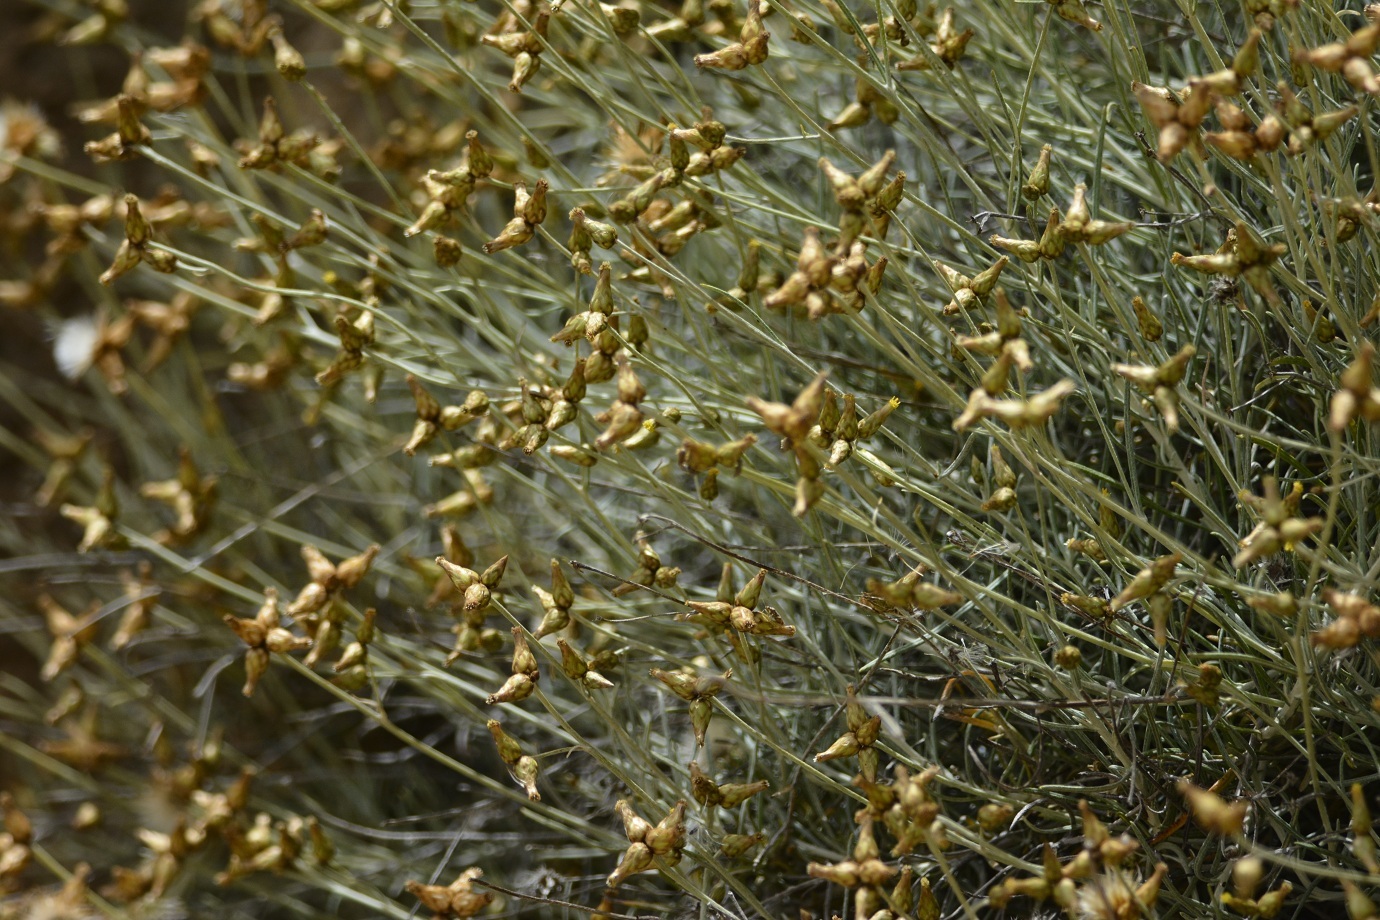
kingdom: Plantae
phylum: Tracheophyta
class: Magnoliopsida
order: Asterales
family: Asteraceae
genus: Phagnalon
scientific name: Phagnalon sordidum
